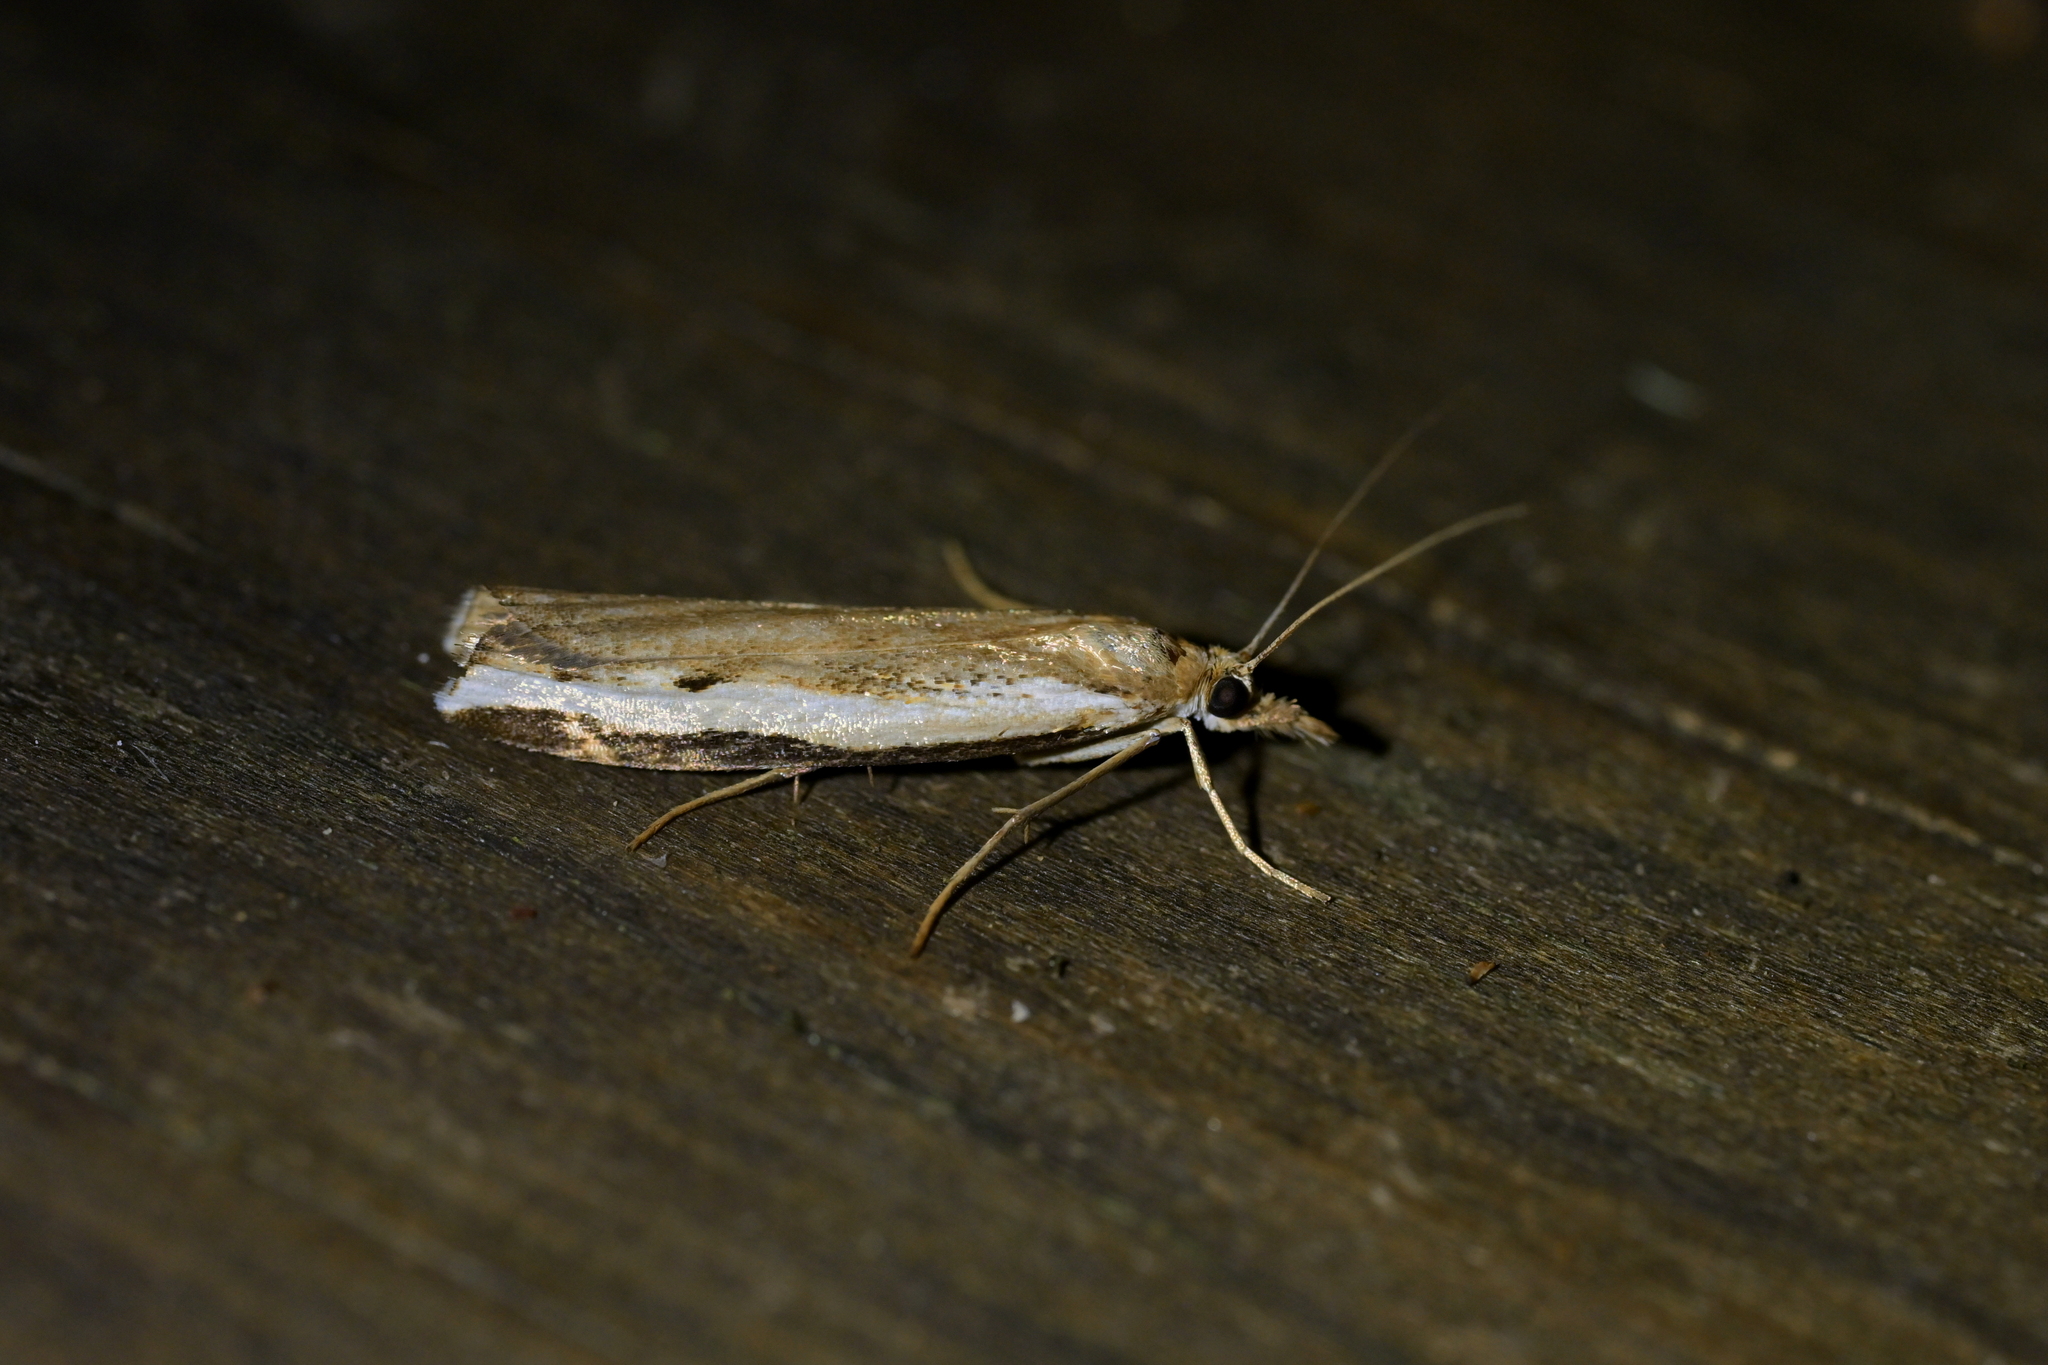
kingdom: Animalia
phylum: Arthropoda
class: Insecta
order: Lepidoptera
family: Crambidae
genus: Orocrambus
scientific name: Orocrambus flexuosellus
